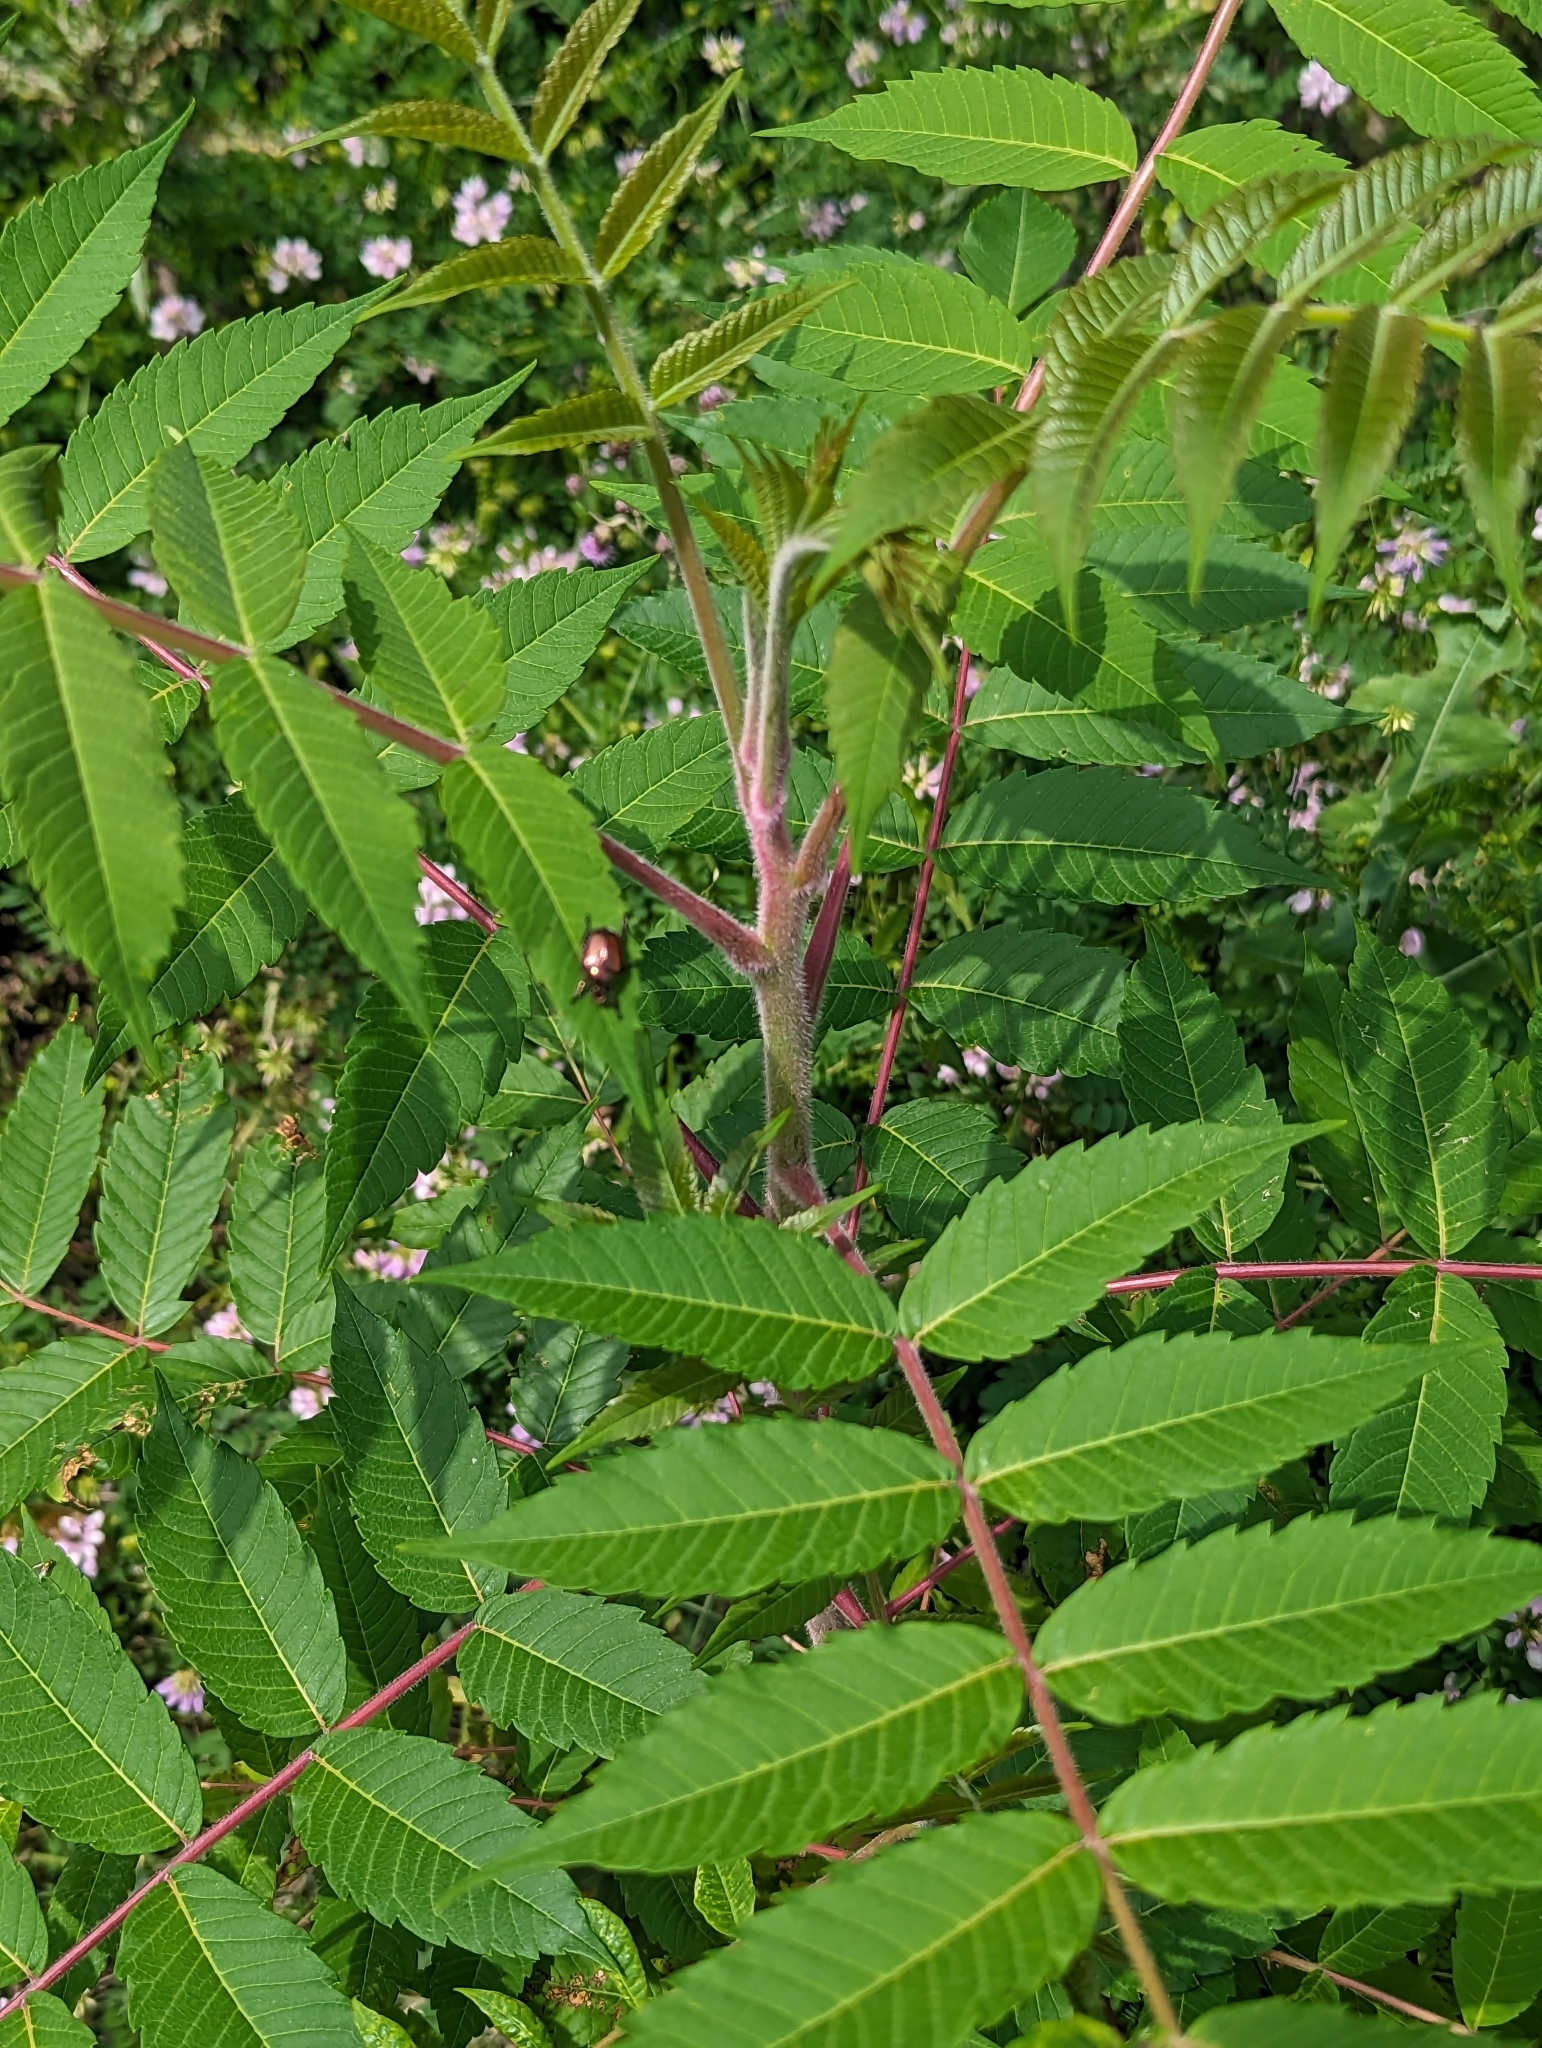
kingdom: Plantae
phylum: Tracheophyta
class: Magnoliopsida
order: Sapindales
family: Anacardiaceae
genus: Rhus
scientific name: Rhus typhina
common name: Staghorn sumac
